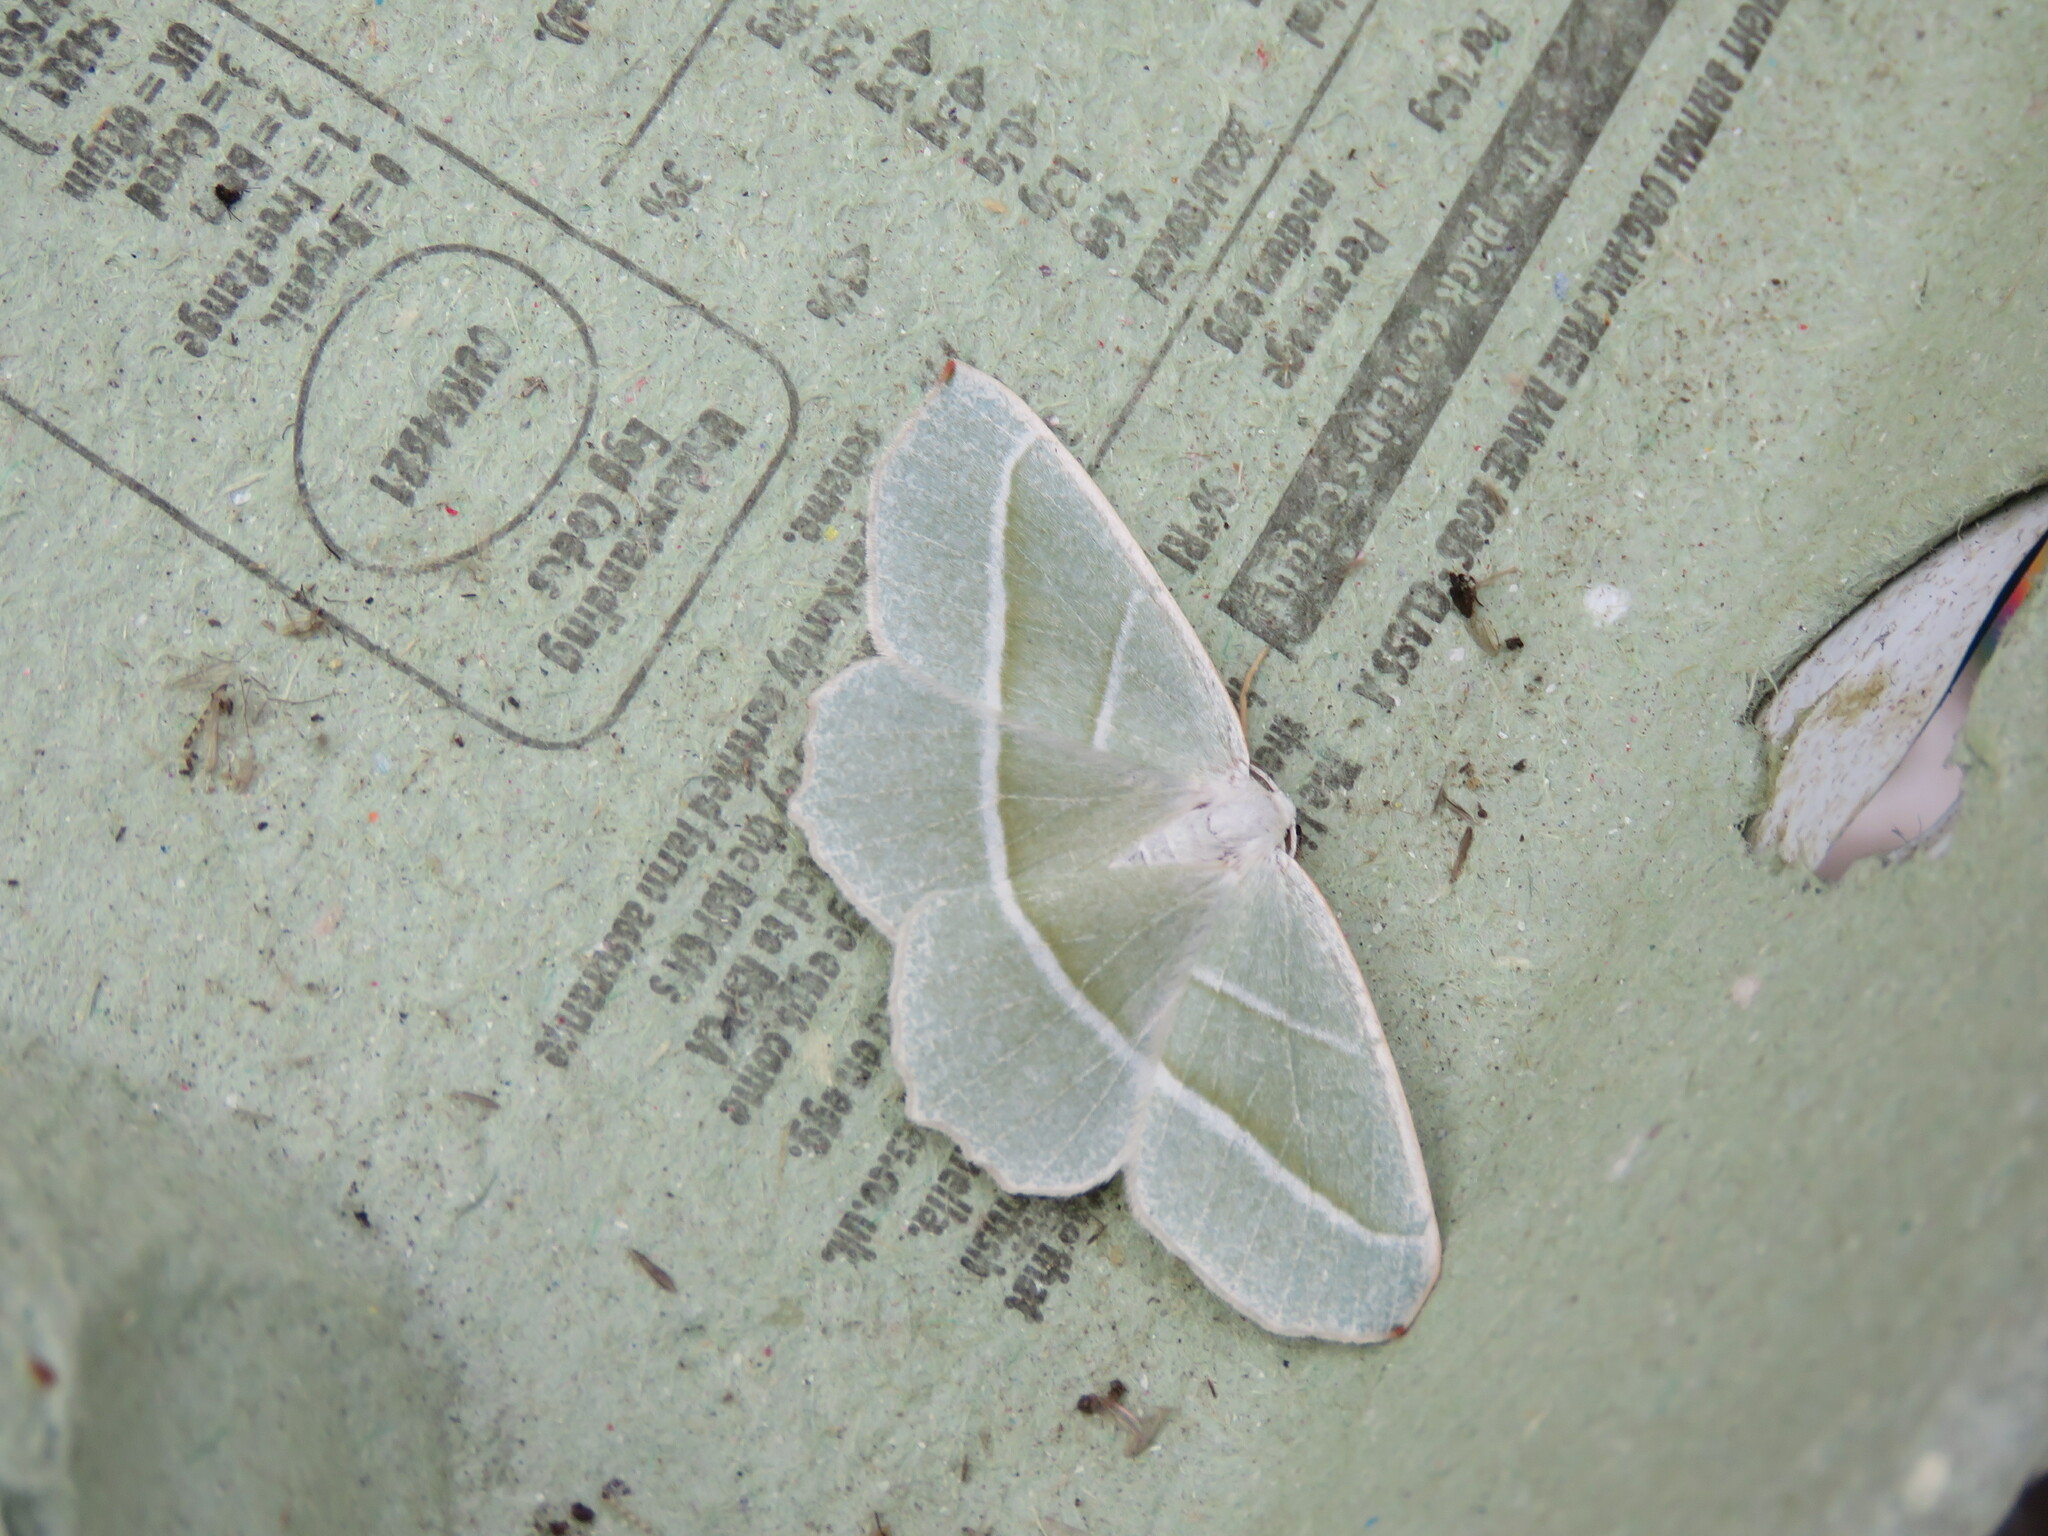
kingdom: Animalia
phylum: Arthropoda
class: Insecta
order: Lepidoptera
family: Geometridae
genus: Campaea
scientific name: Campaea margaritaria
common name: Light emerald
